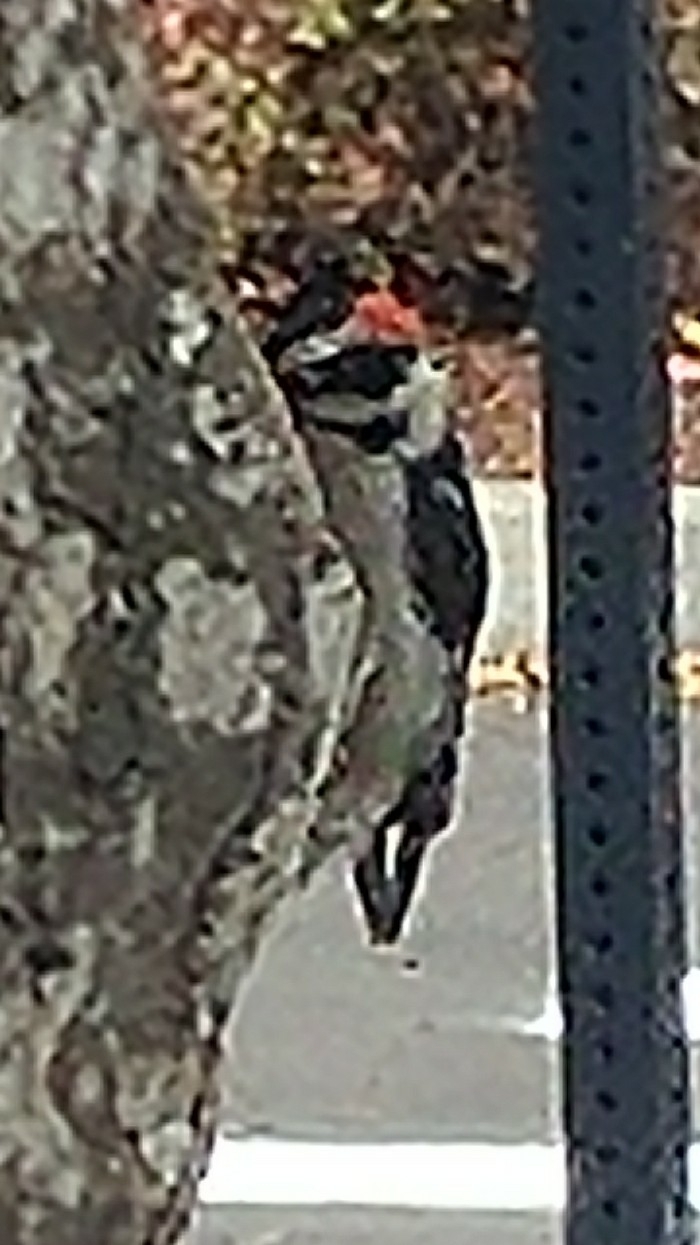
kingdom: Animalia
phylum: Chordata
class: Aves
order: Piciformes
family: Picidae
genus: Dryobates
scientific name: Dryobates pubescens
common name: Downy woodpecker
